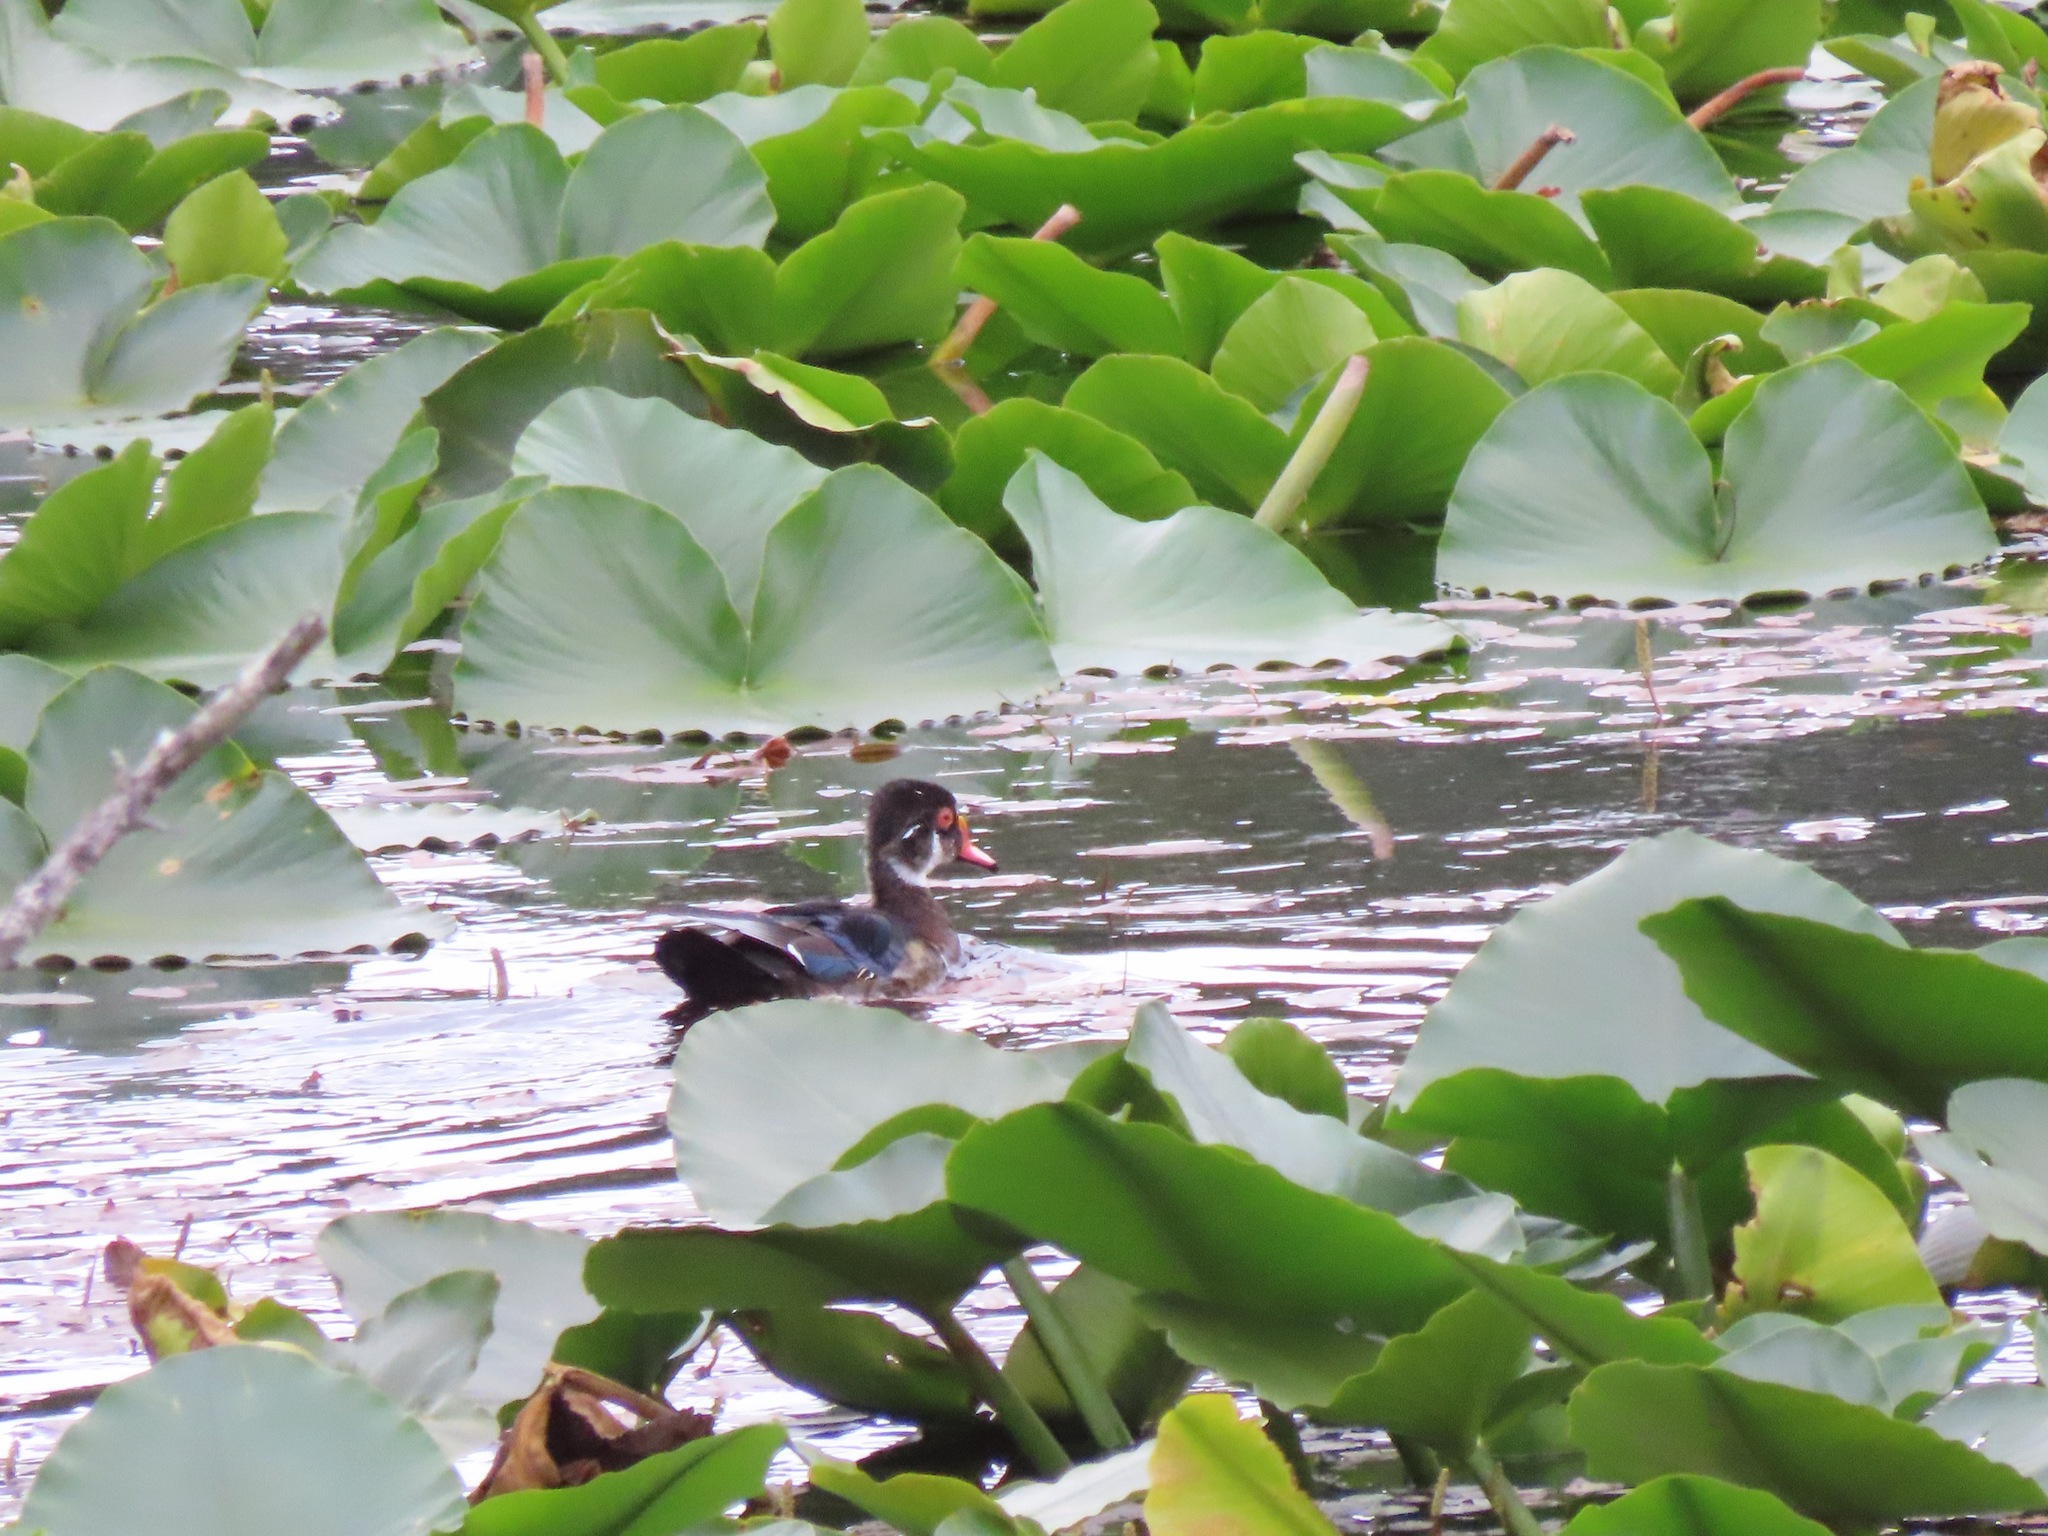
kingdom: Animalia
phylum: Chordata
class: Aves
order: Anseriformes
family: Anatidae
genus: Aix
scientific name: Aix sponsa
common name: Wood duck
